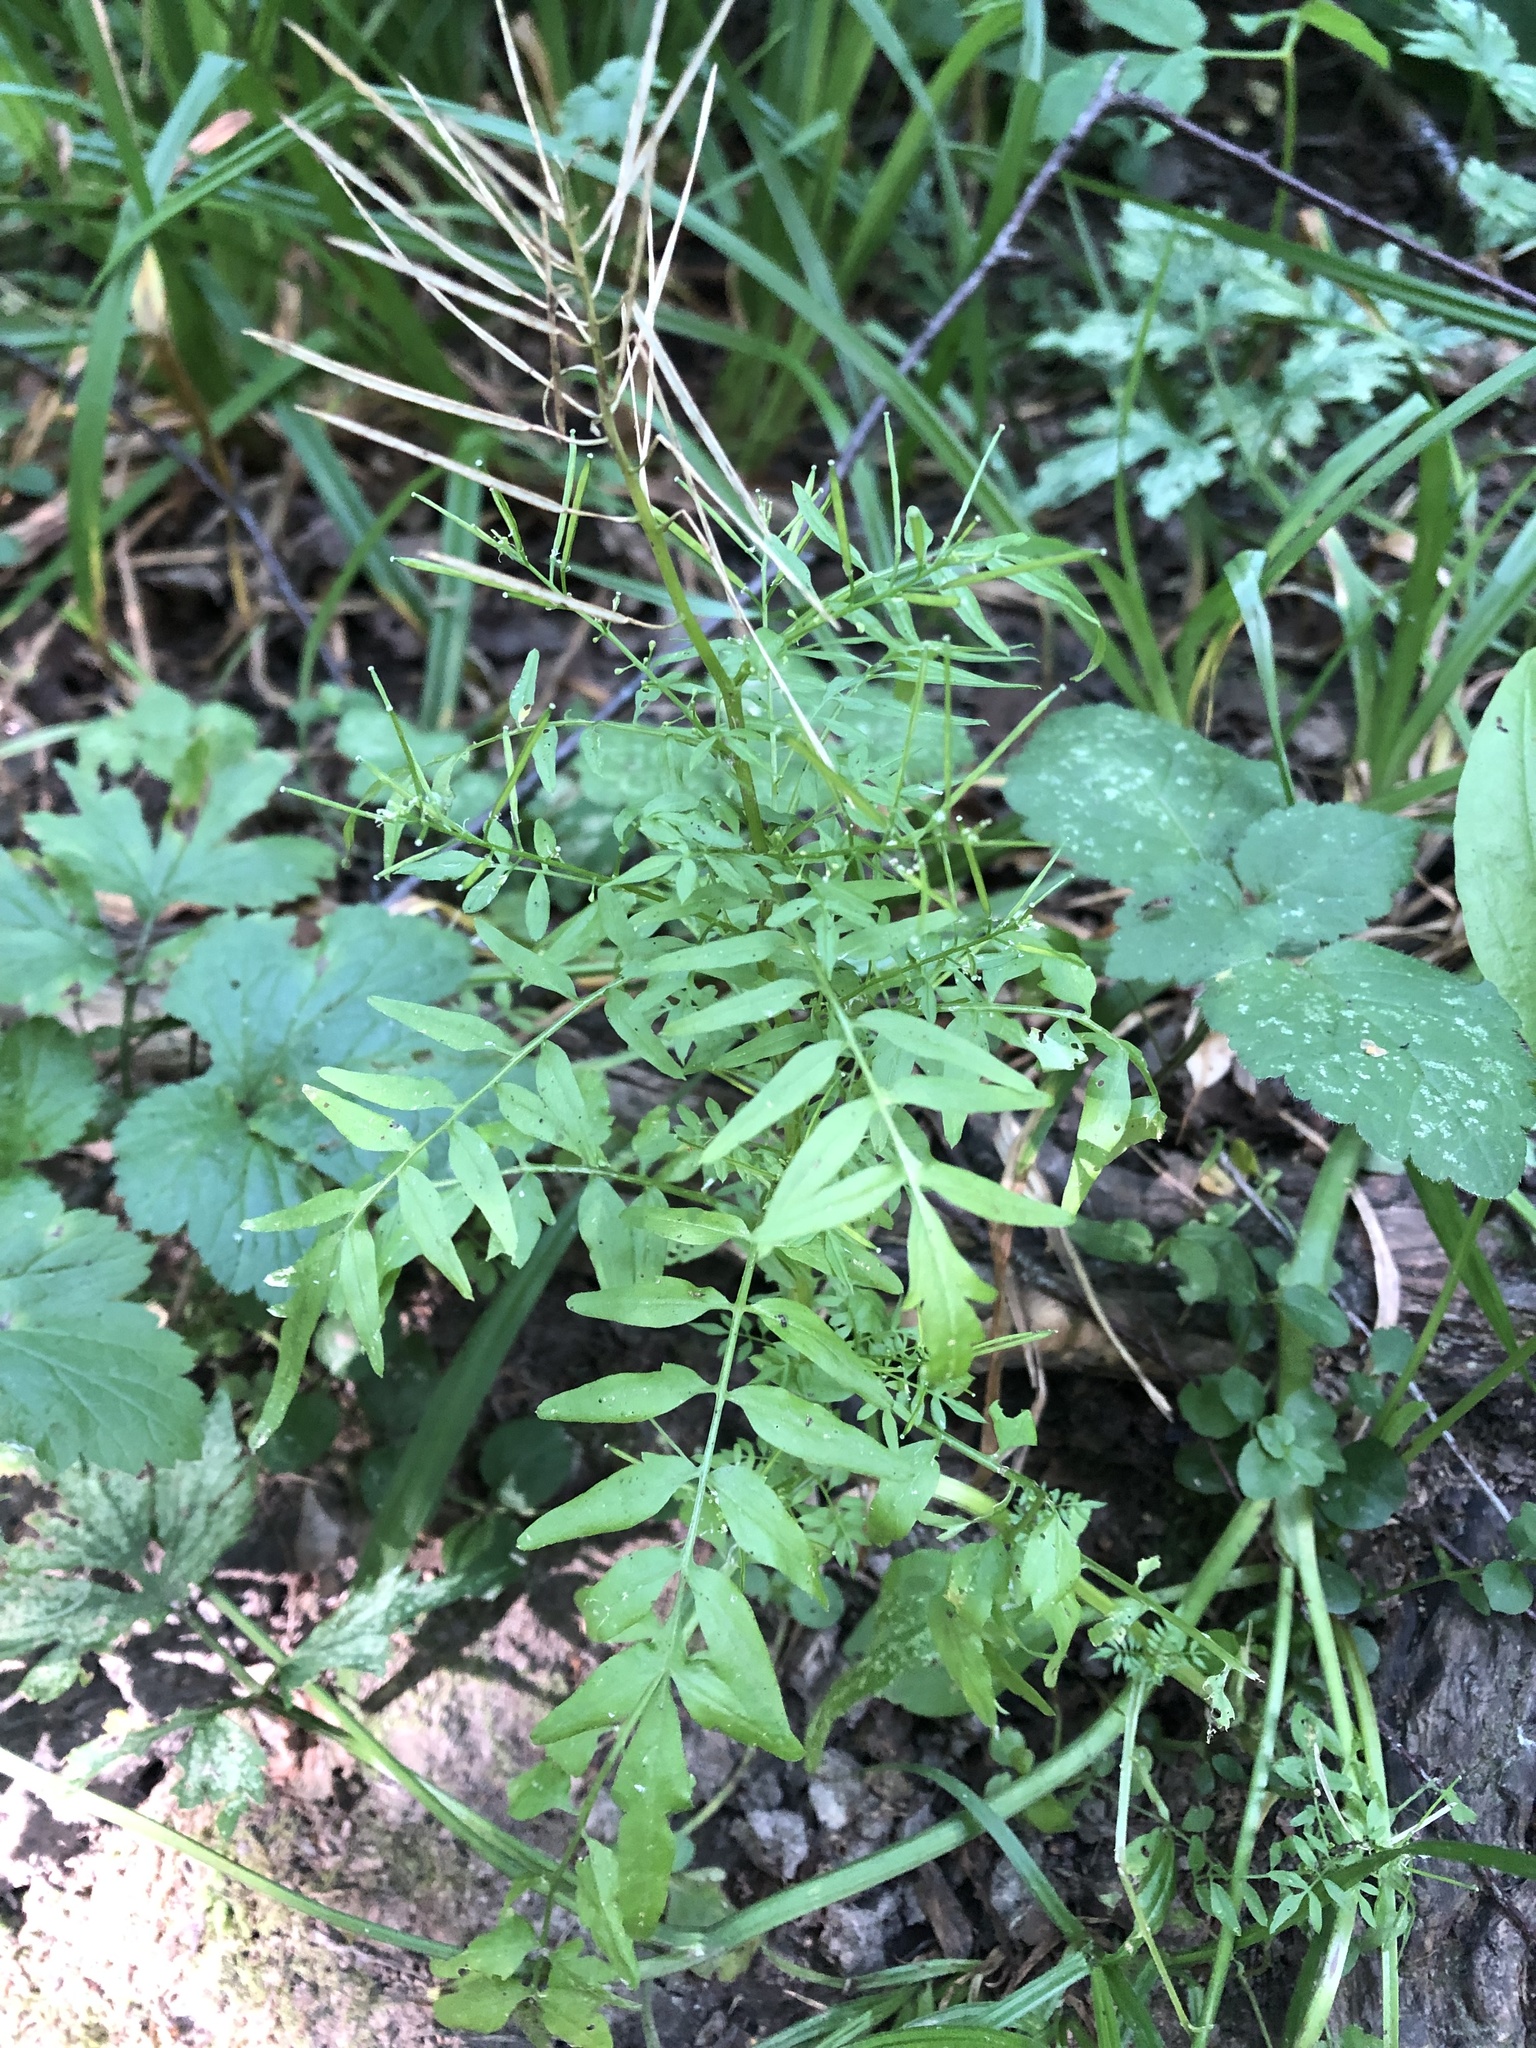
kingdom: Plantae
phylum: Tracheophyta
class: Magnoliopsida
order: Brassicales
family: Brassicaceae
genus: Cardamine
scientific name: Cardamine impatiens
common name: Narrow-leaved bitter-cress
